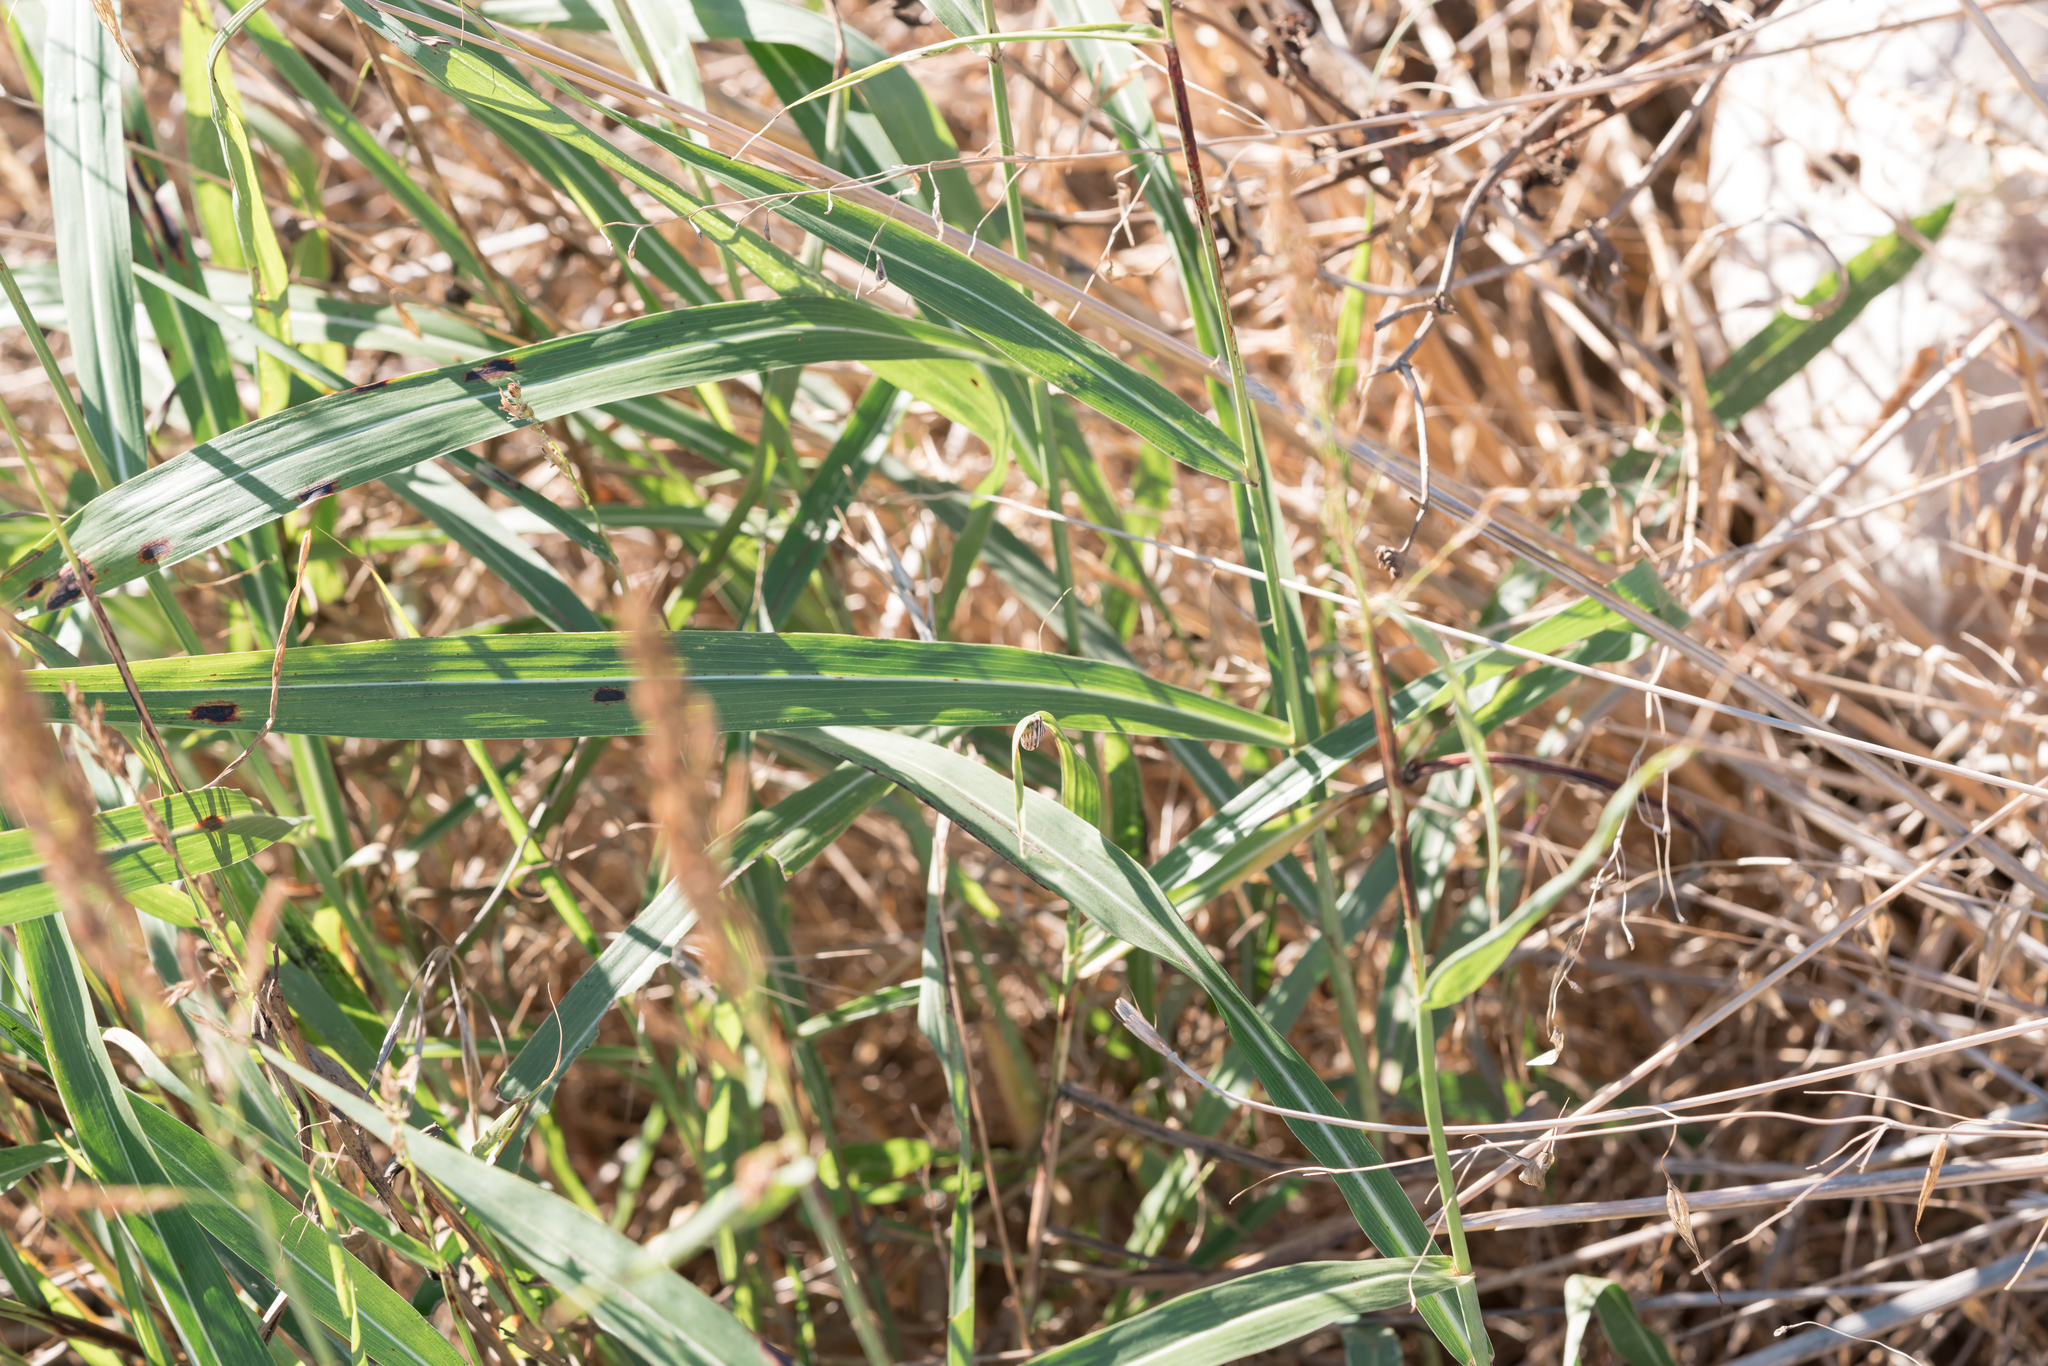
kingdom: Plantae
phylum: Tracheophyta
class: Liliopsida
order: Poales
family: Poaceae
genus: Sorghum
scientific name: Sorghum halepense
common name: Johnson-grass
